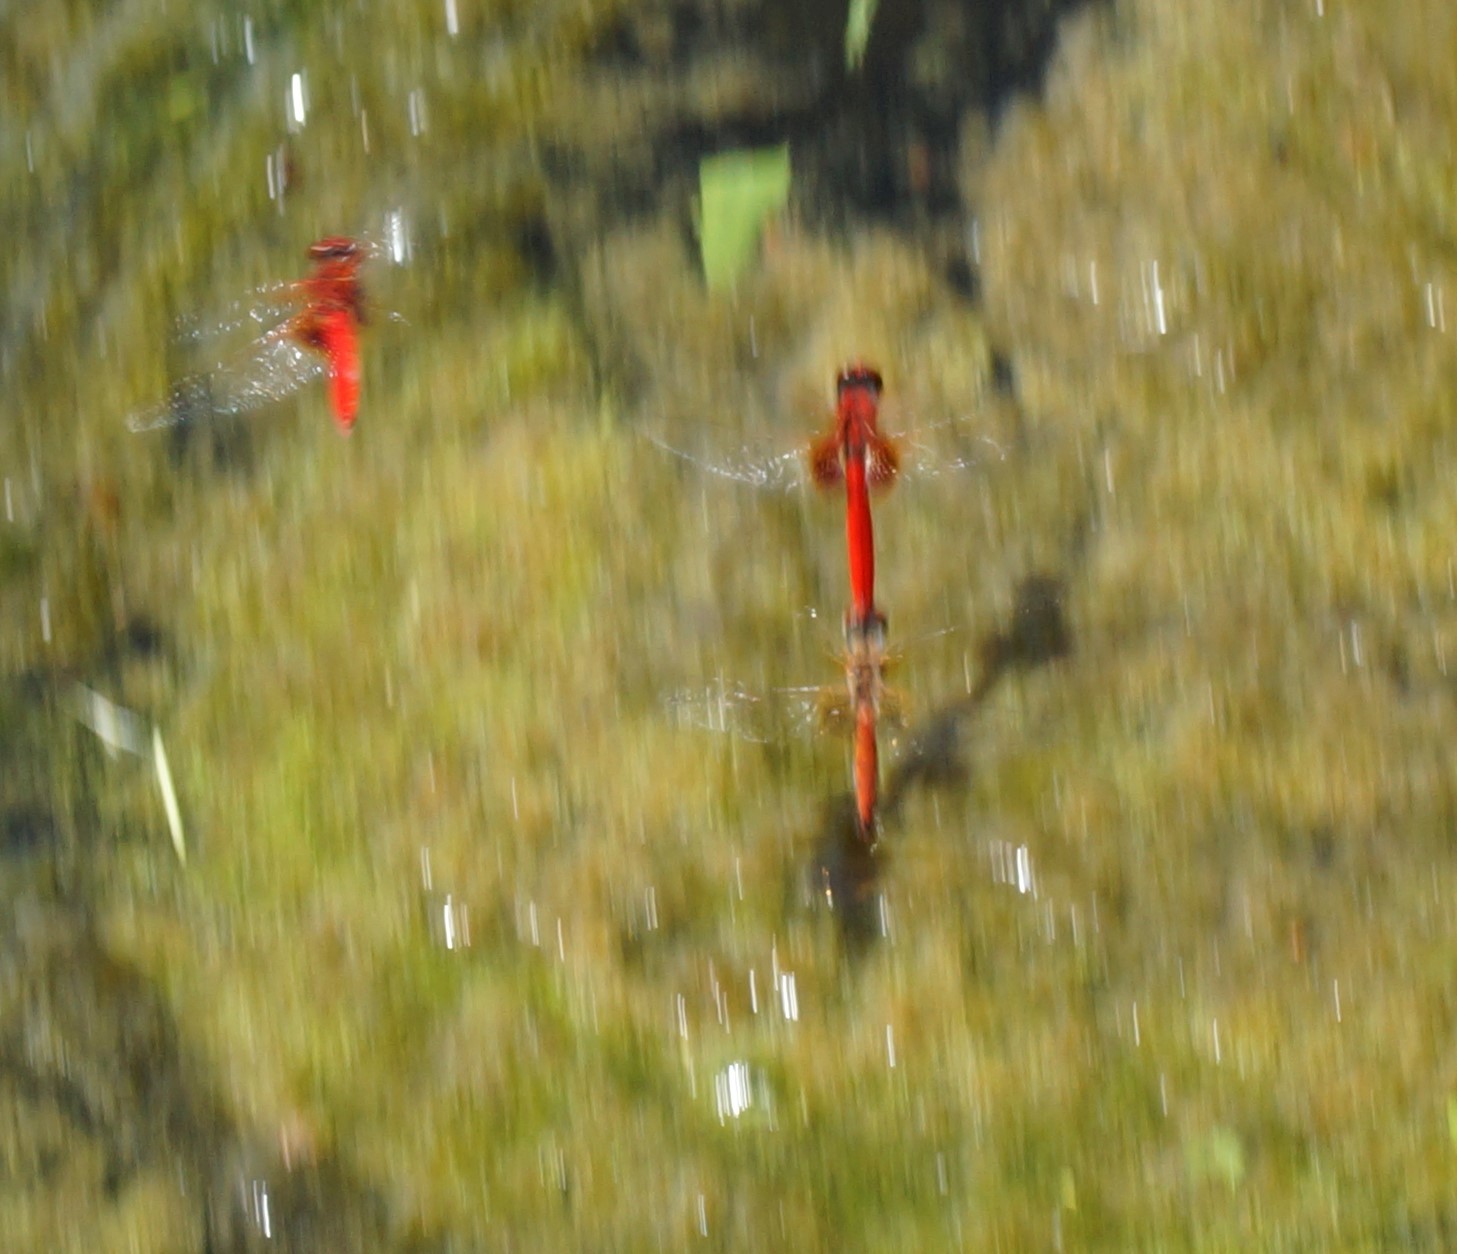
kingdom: Animalia
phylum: Arthropoda
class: Insecta
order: Odonata
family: Libellulidae
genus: Aethriamanta
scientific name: Aethriamanta circumsignata
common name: Square-spot basker
